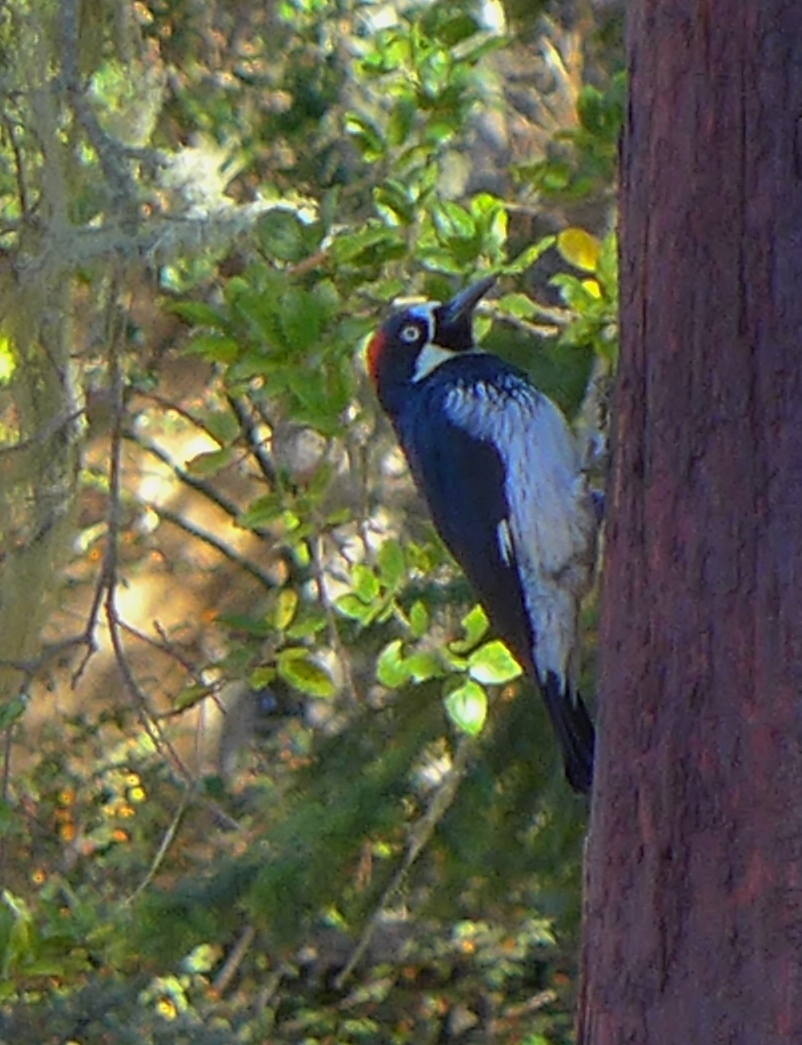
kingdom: Animalia
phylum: Chordata
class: Aves
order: Piciformes
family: Picidae
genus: Melanerpes
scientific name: Melanerpes formicivorus
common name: Acorn woodpecker
